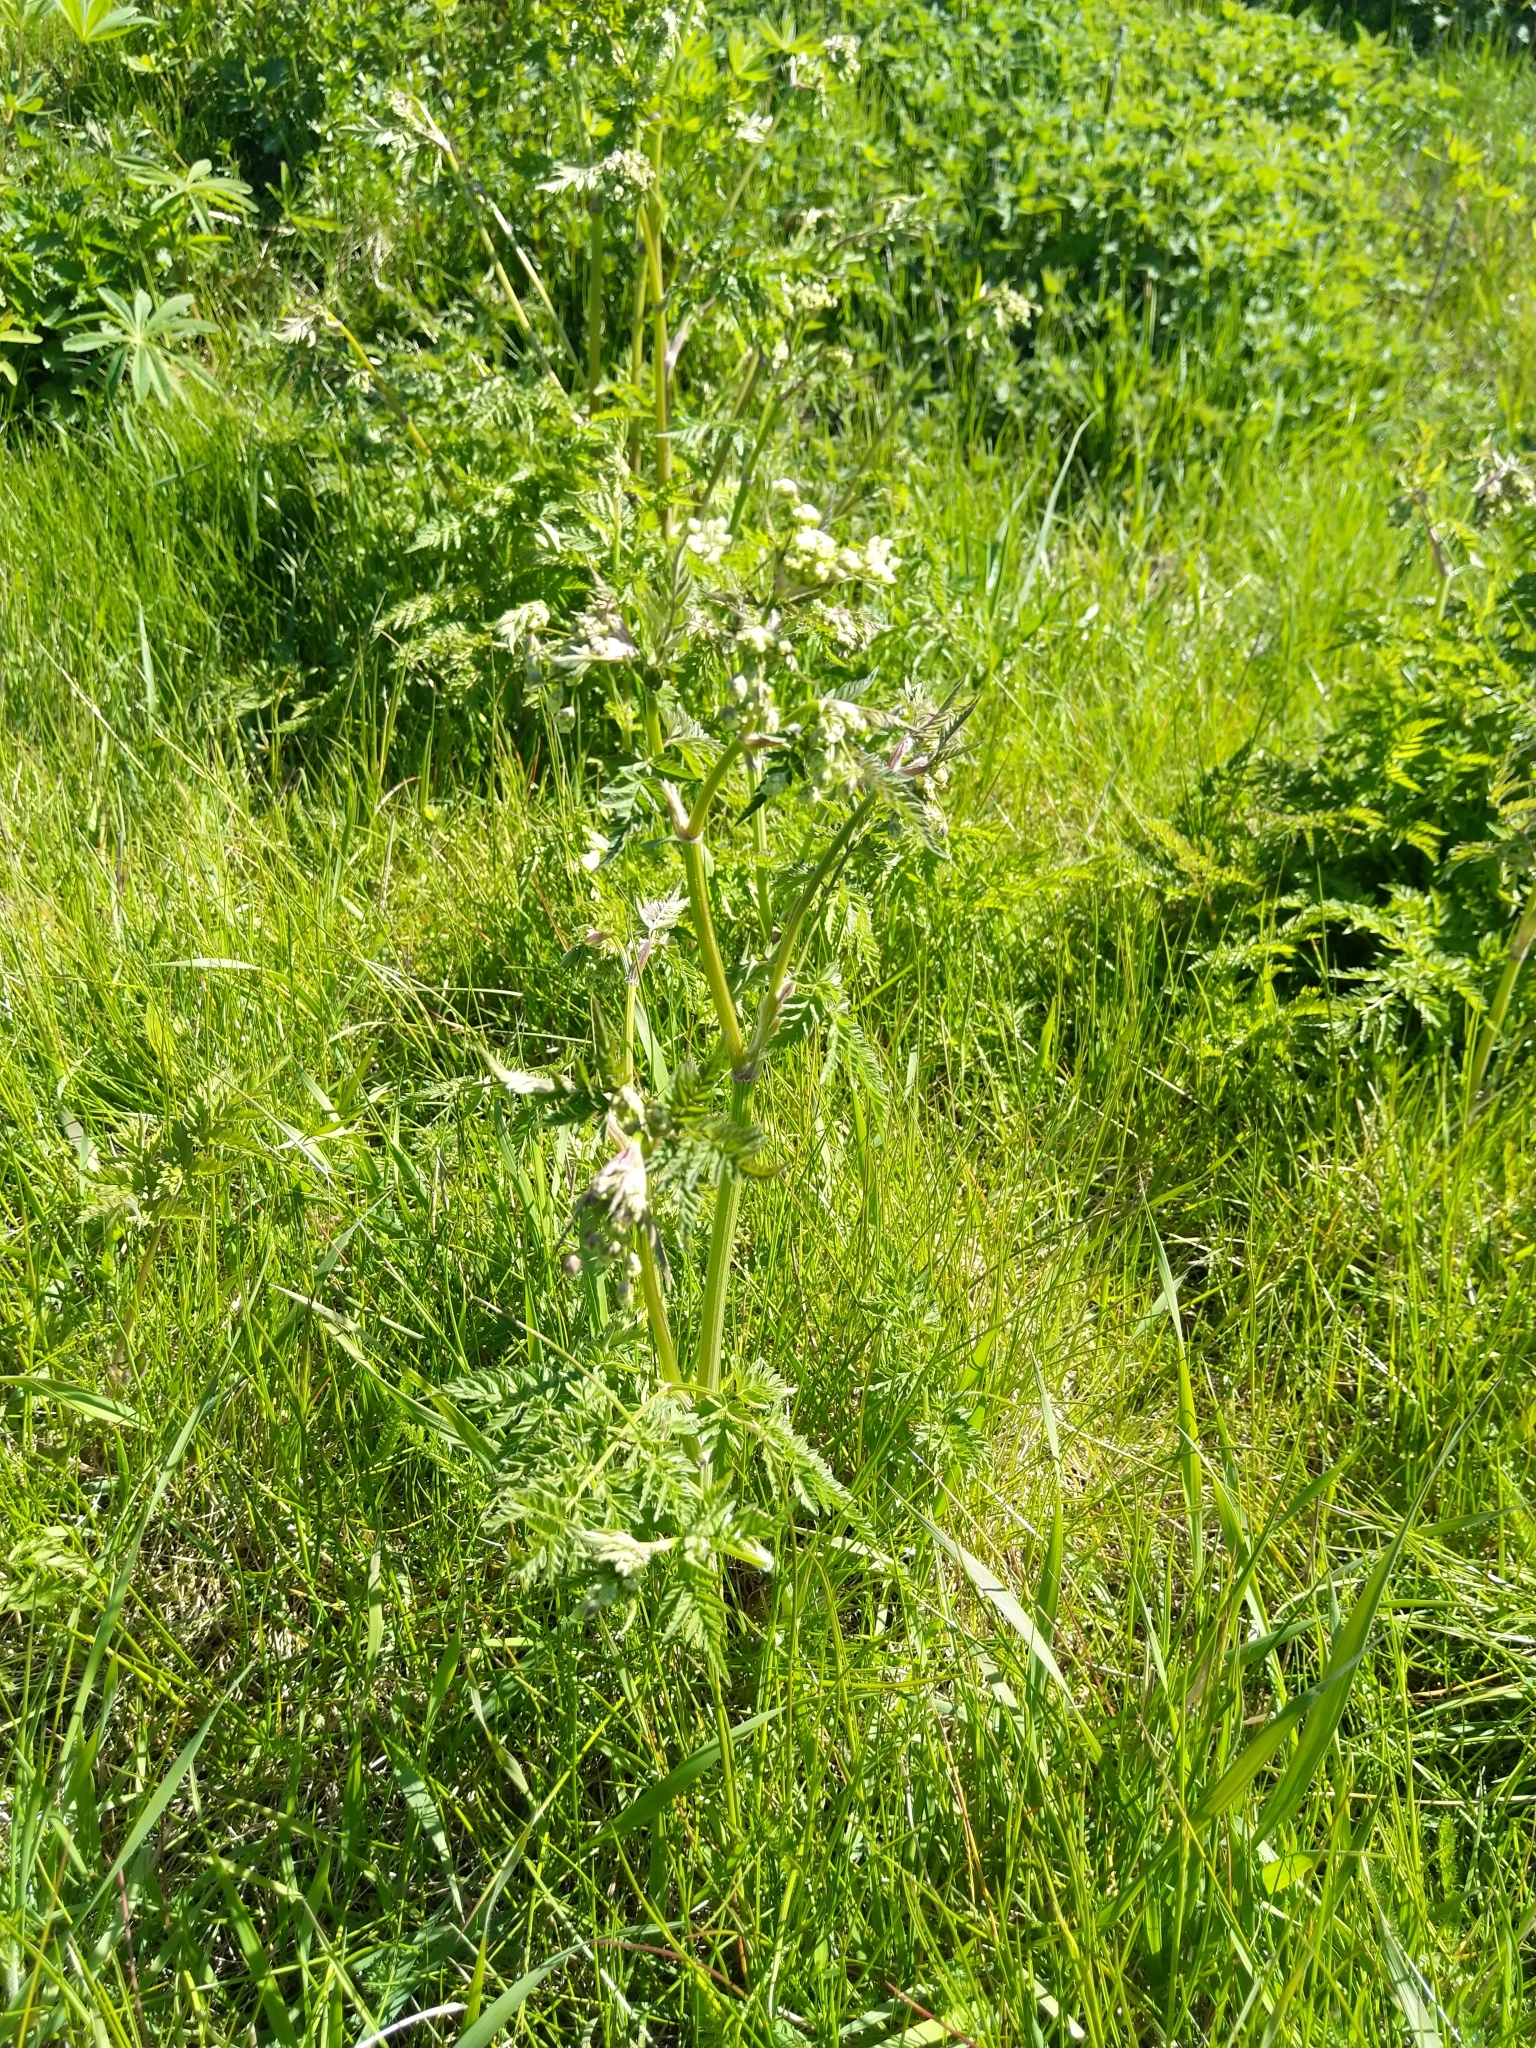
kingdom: Plantae
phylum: Tracheophyta
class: Magnoliopsida
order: Apiales
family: Apiaceae
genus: Anthriscus
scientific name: Anthriscus sylvestris
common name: Cow parsley
